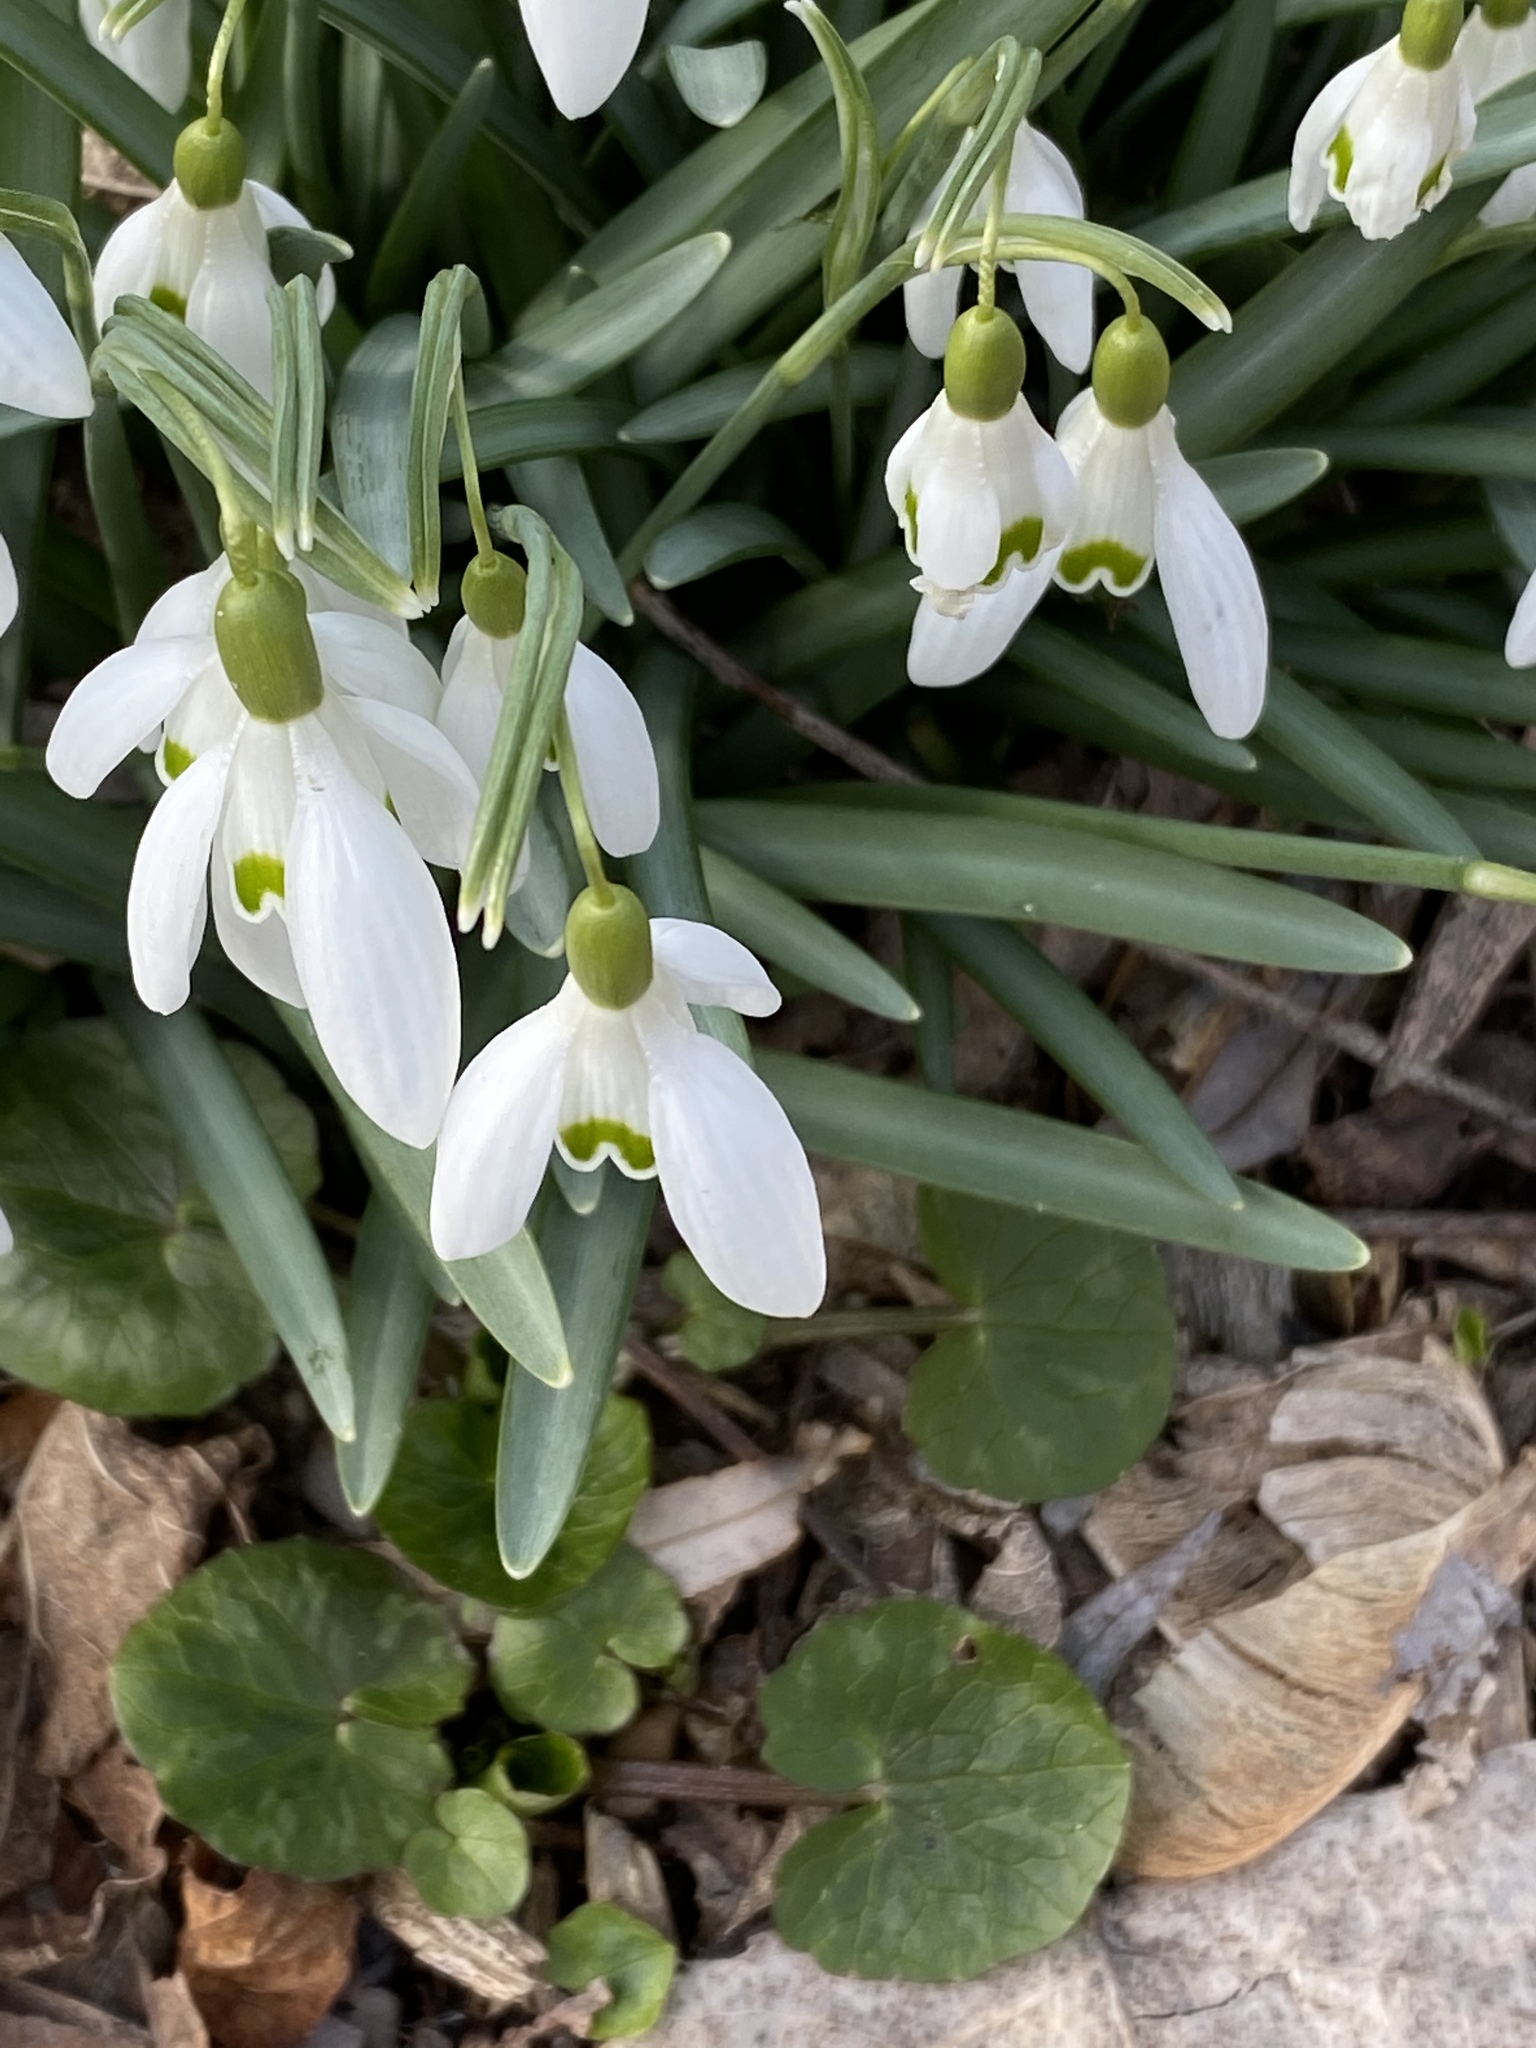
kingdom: Plantae
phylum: Tracheophyta
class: Liliopsida
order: Asparagales
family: Amaryllidaceae
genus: Galanthus
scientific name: Galanthus nivalis
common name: Snowdrop
